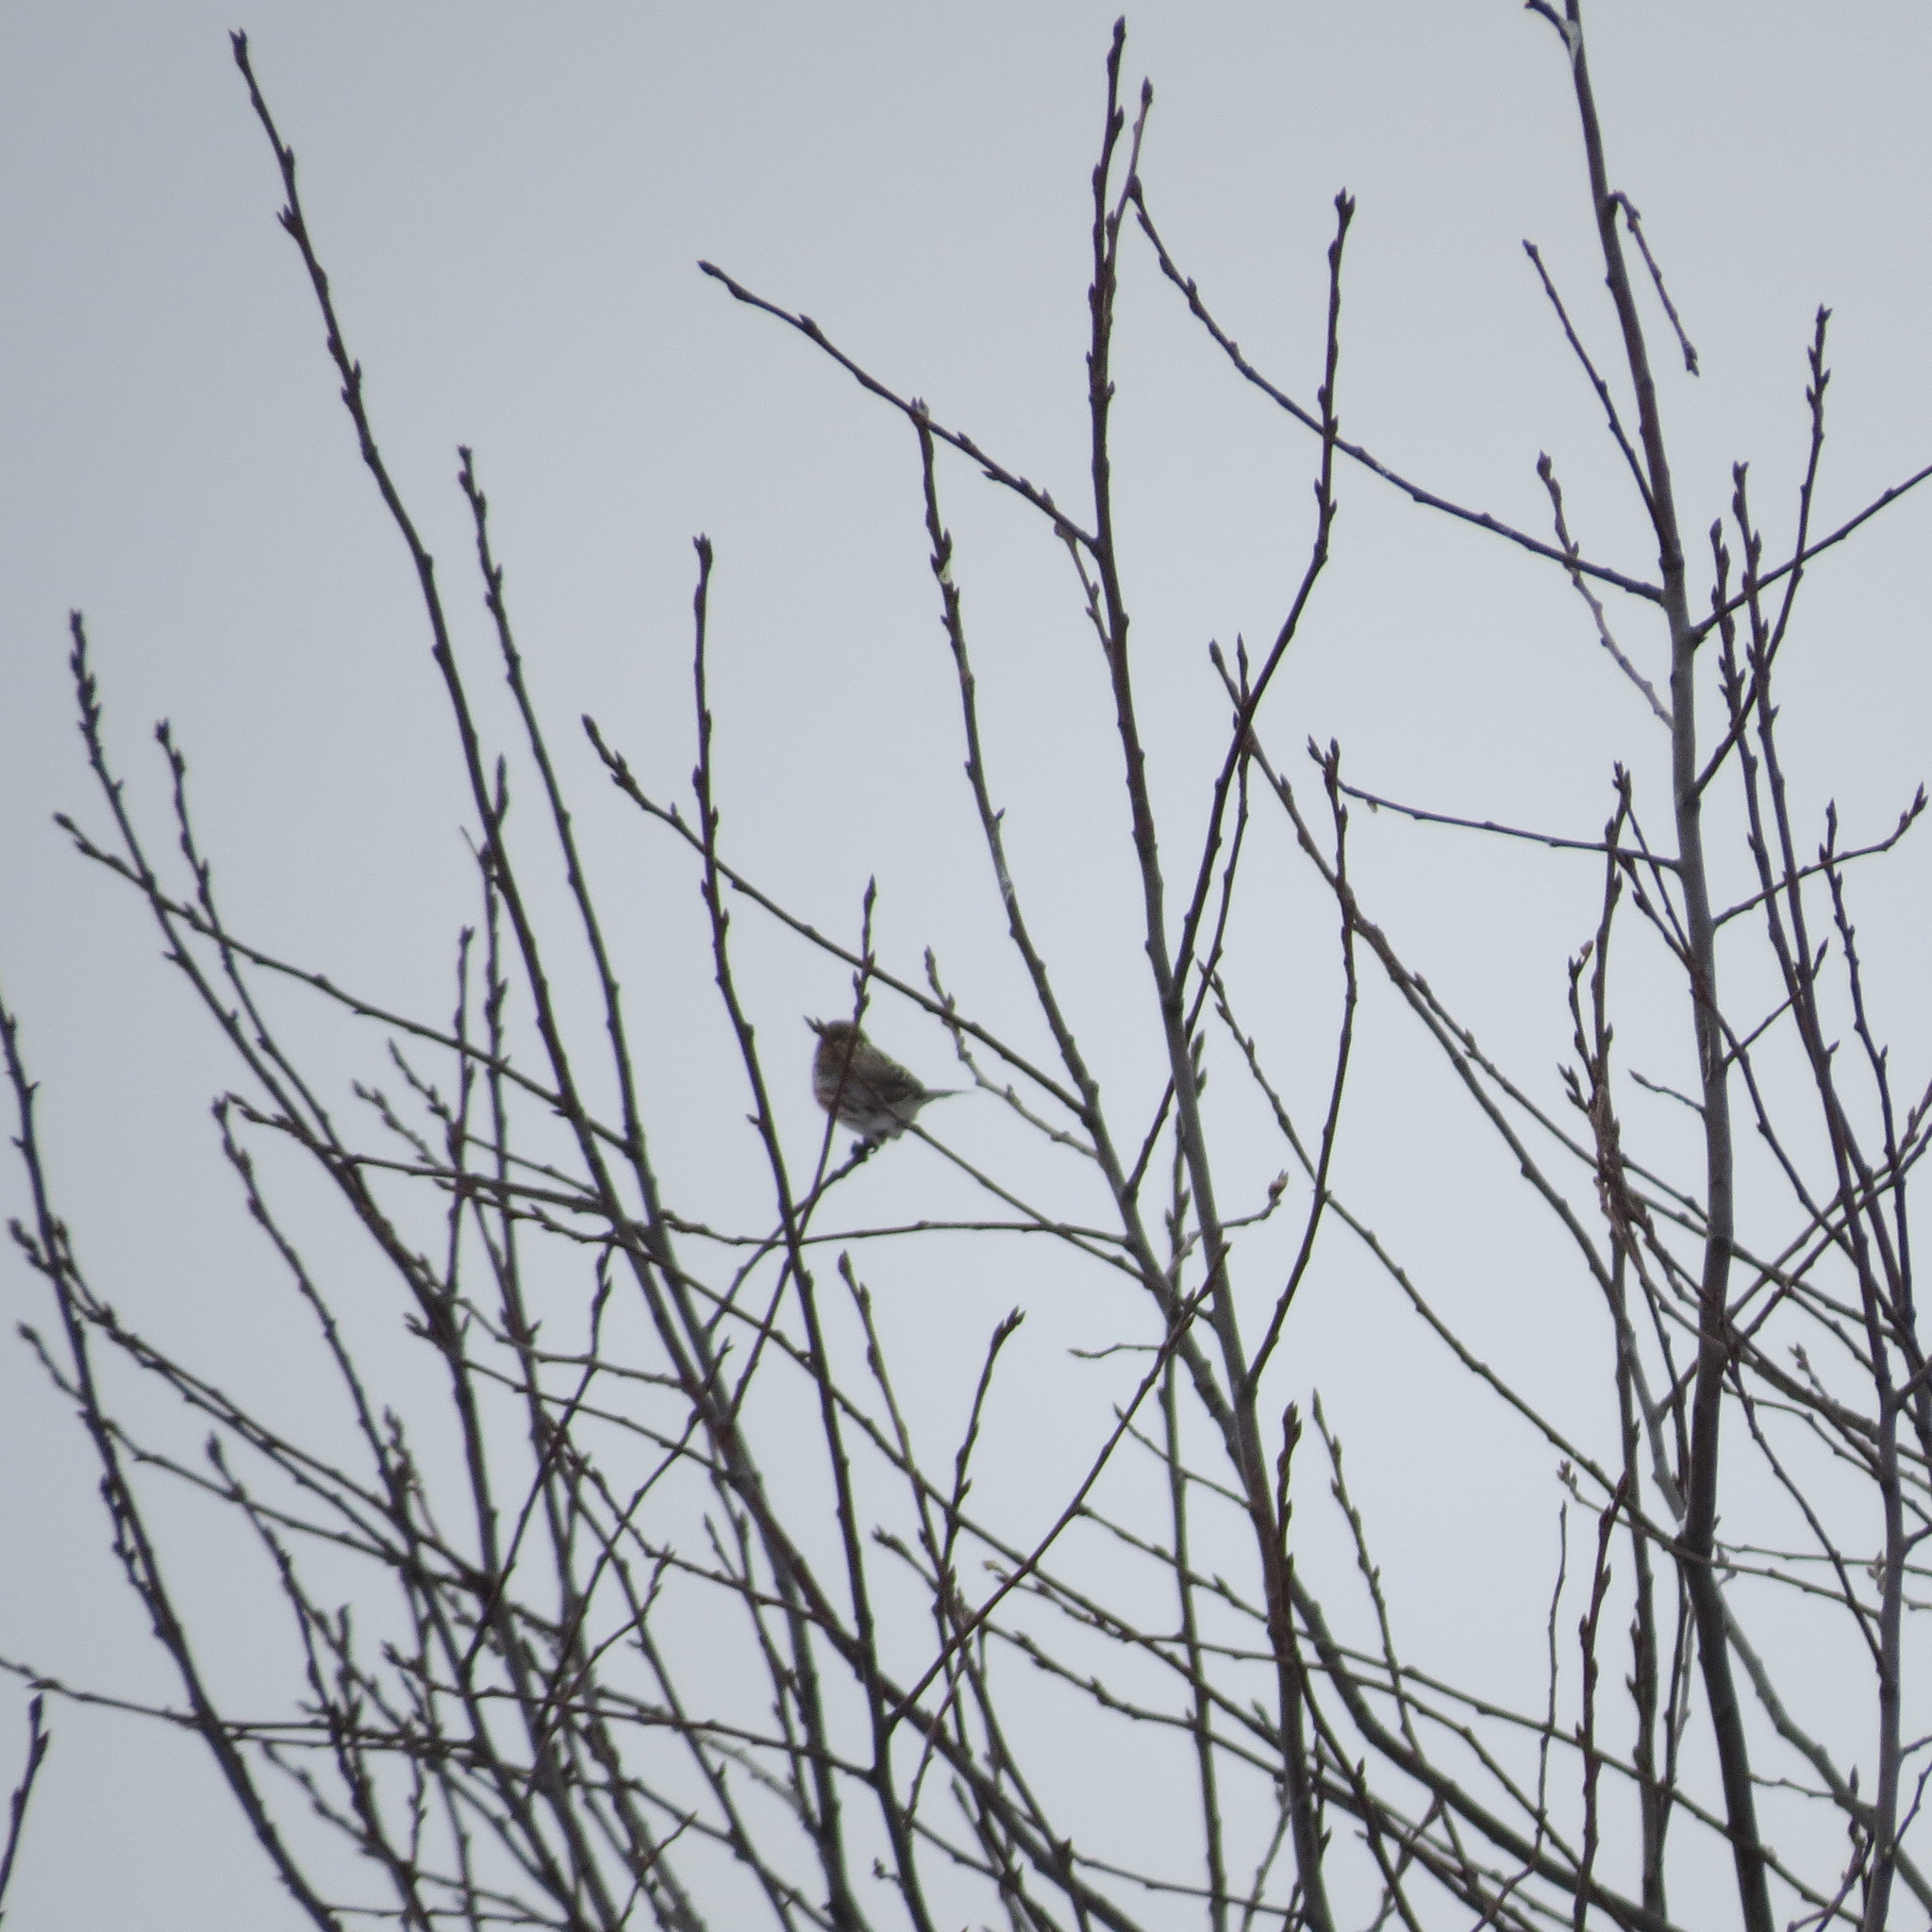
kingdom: Animalia
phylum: Chordata
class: Aves
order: Passeriformes
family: Fringillidae
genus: Acanthis
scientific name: Acanthis flammea
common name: Common redpoll
